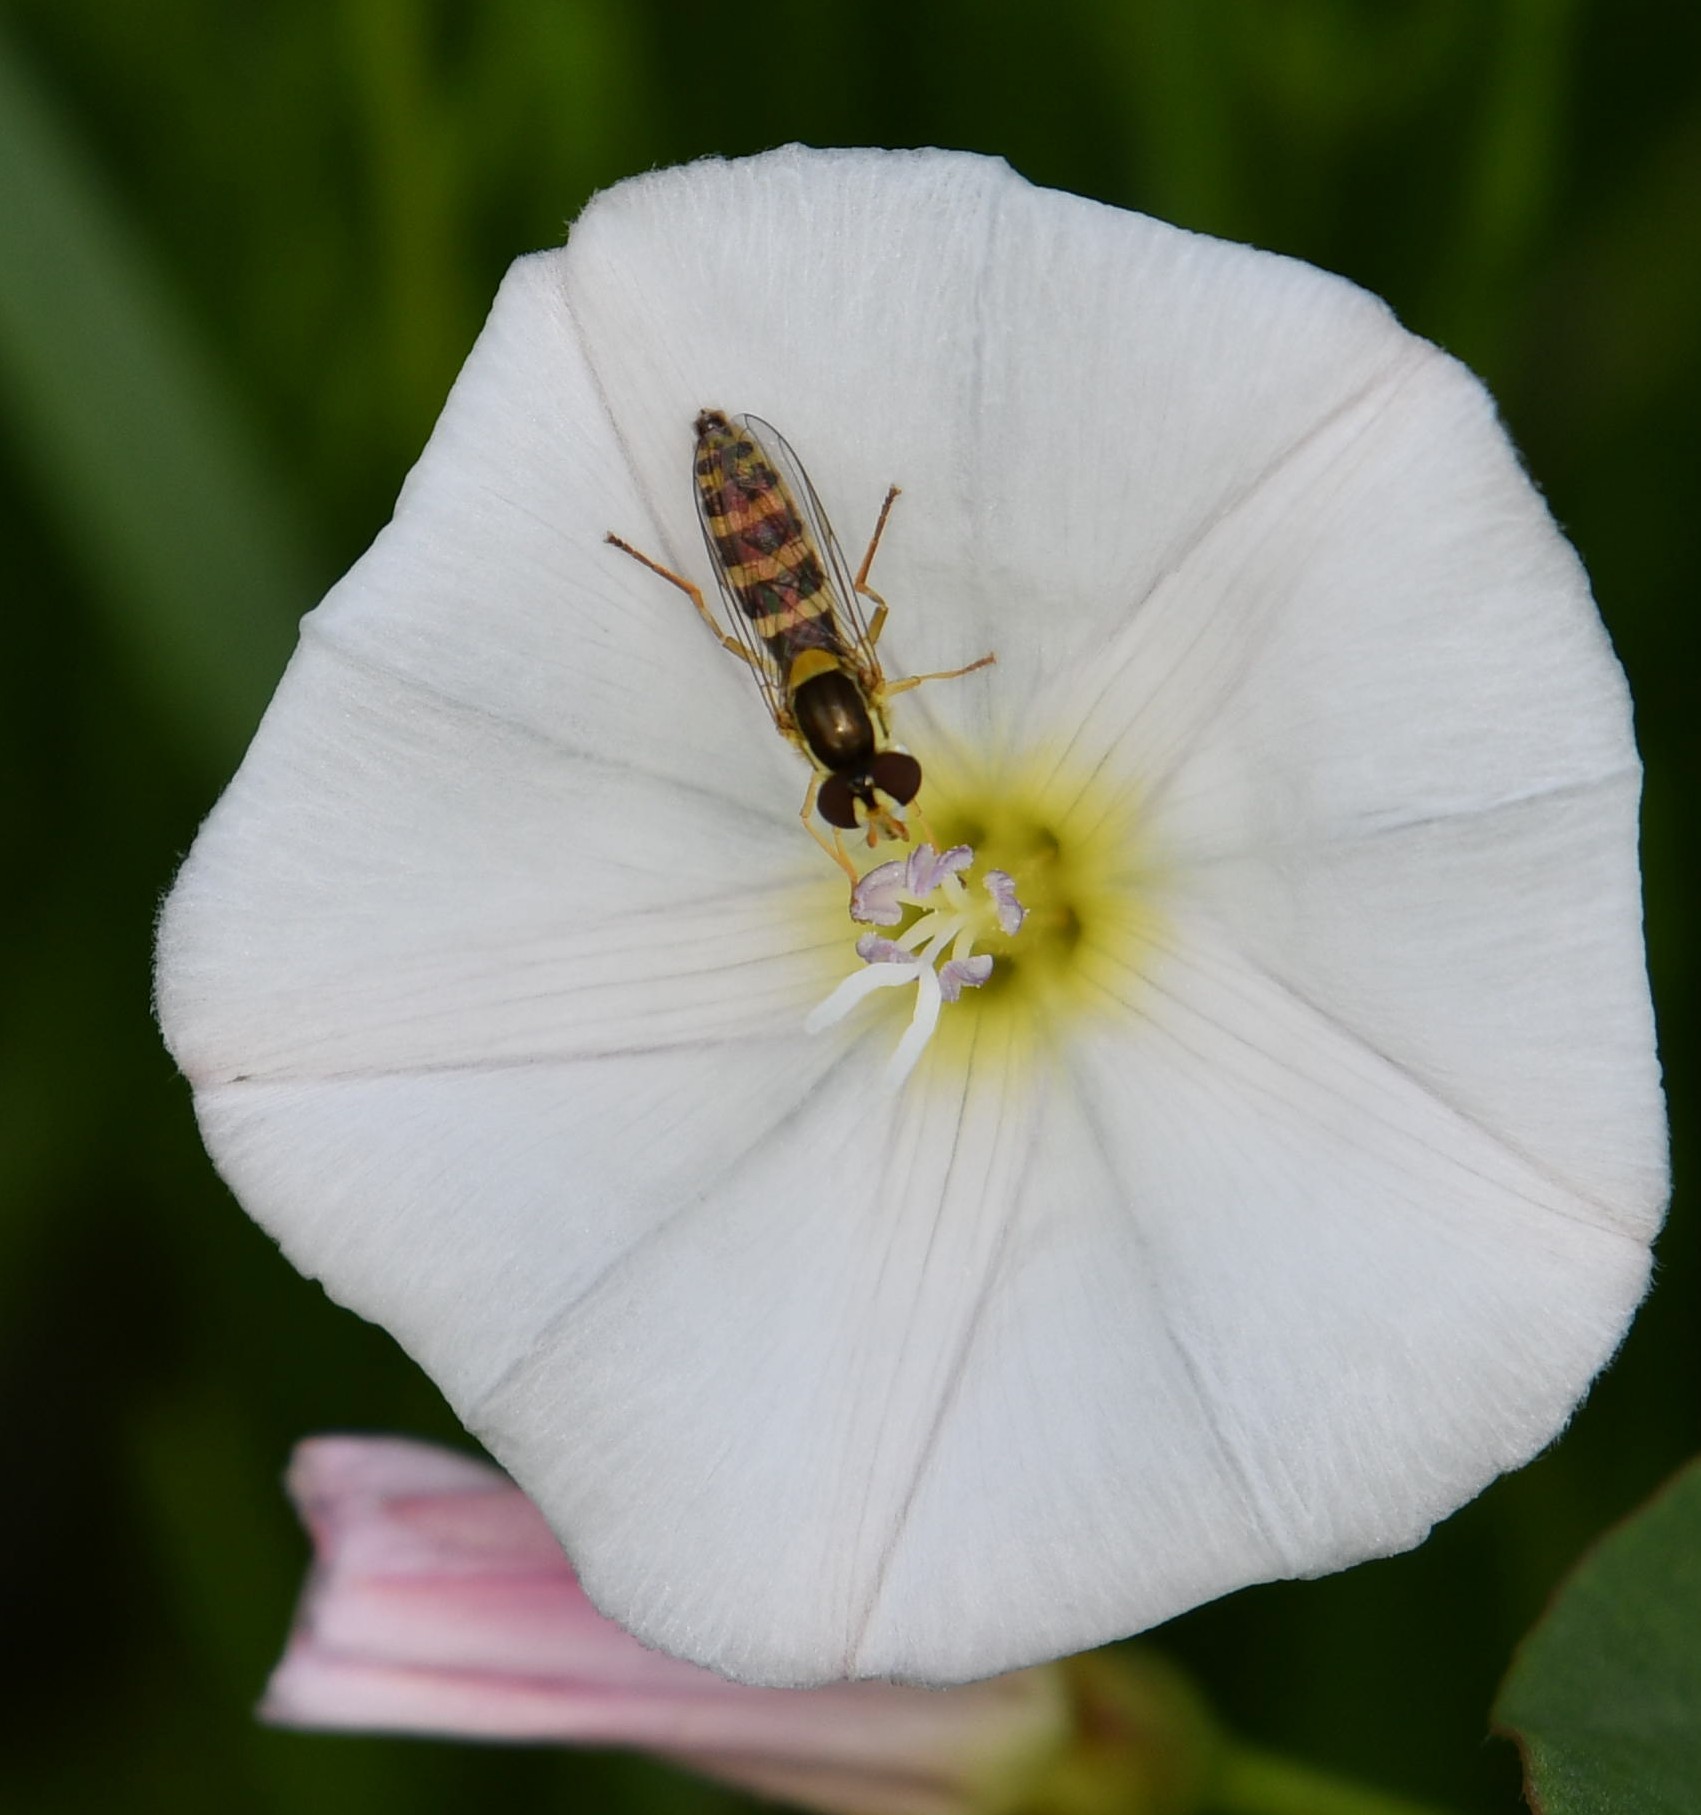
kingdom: Animalia
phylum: Arthropoda
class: Insecta
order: Diptera
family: Syrphidae
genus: Sphaerophoria
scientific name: Sphaerophoria
